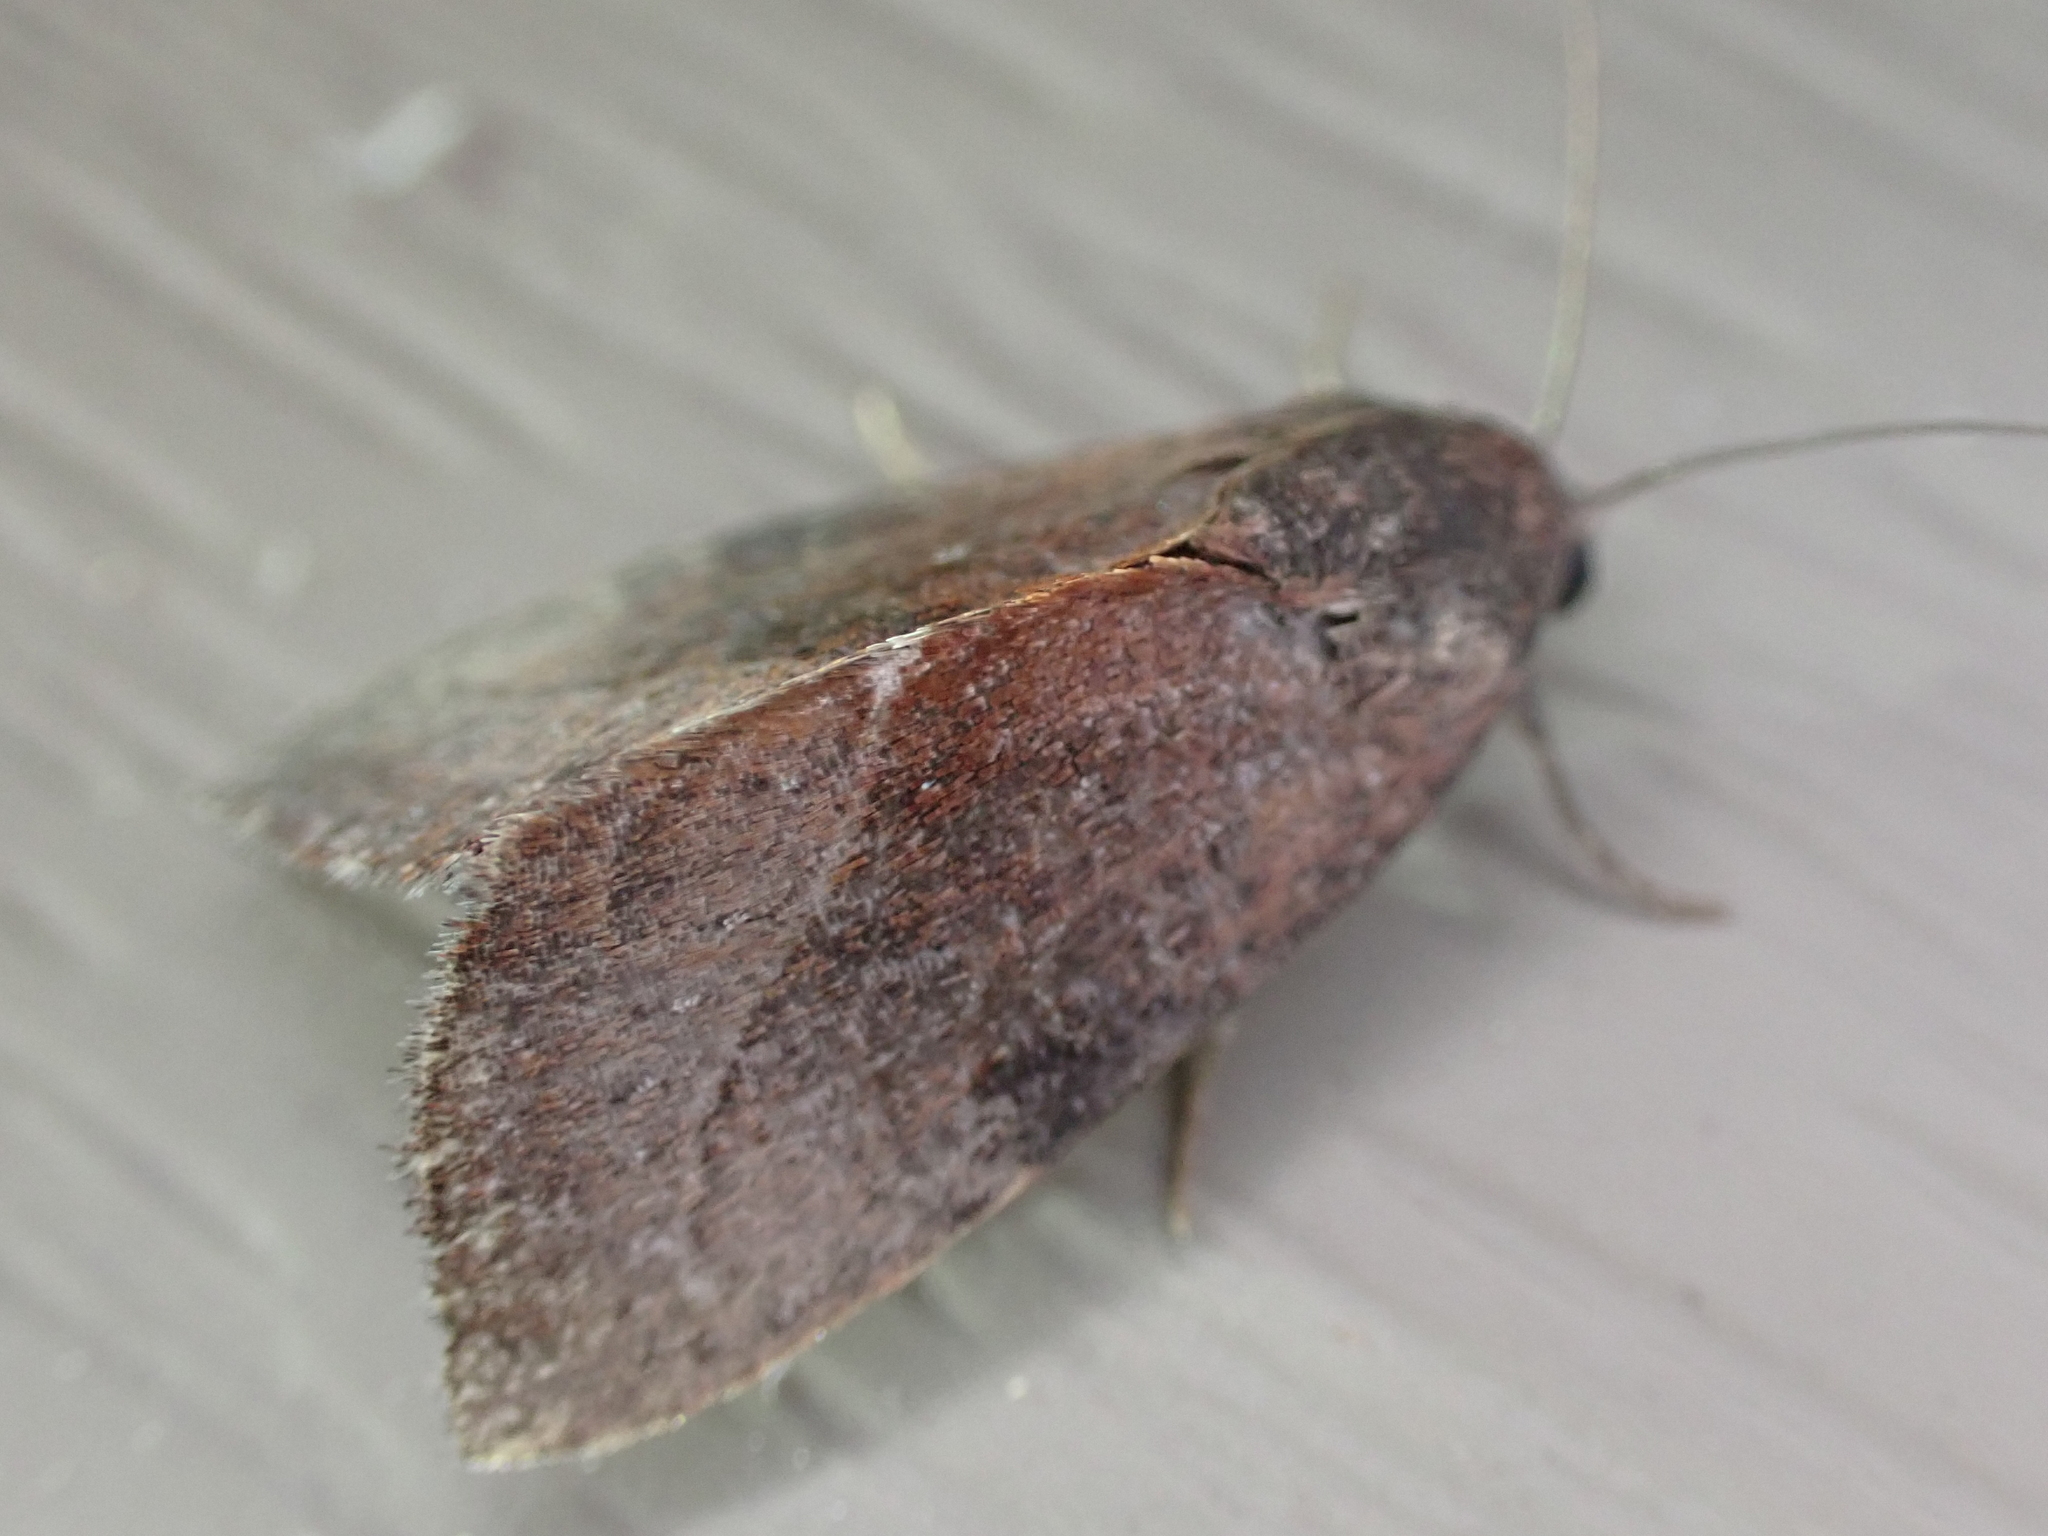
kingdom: Animalia
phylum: Arthropoda
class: Insecta
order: Lepidoptera
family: Noctuidae
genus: Galgula
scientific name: Galgula partita
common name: Wedgeling
